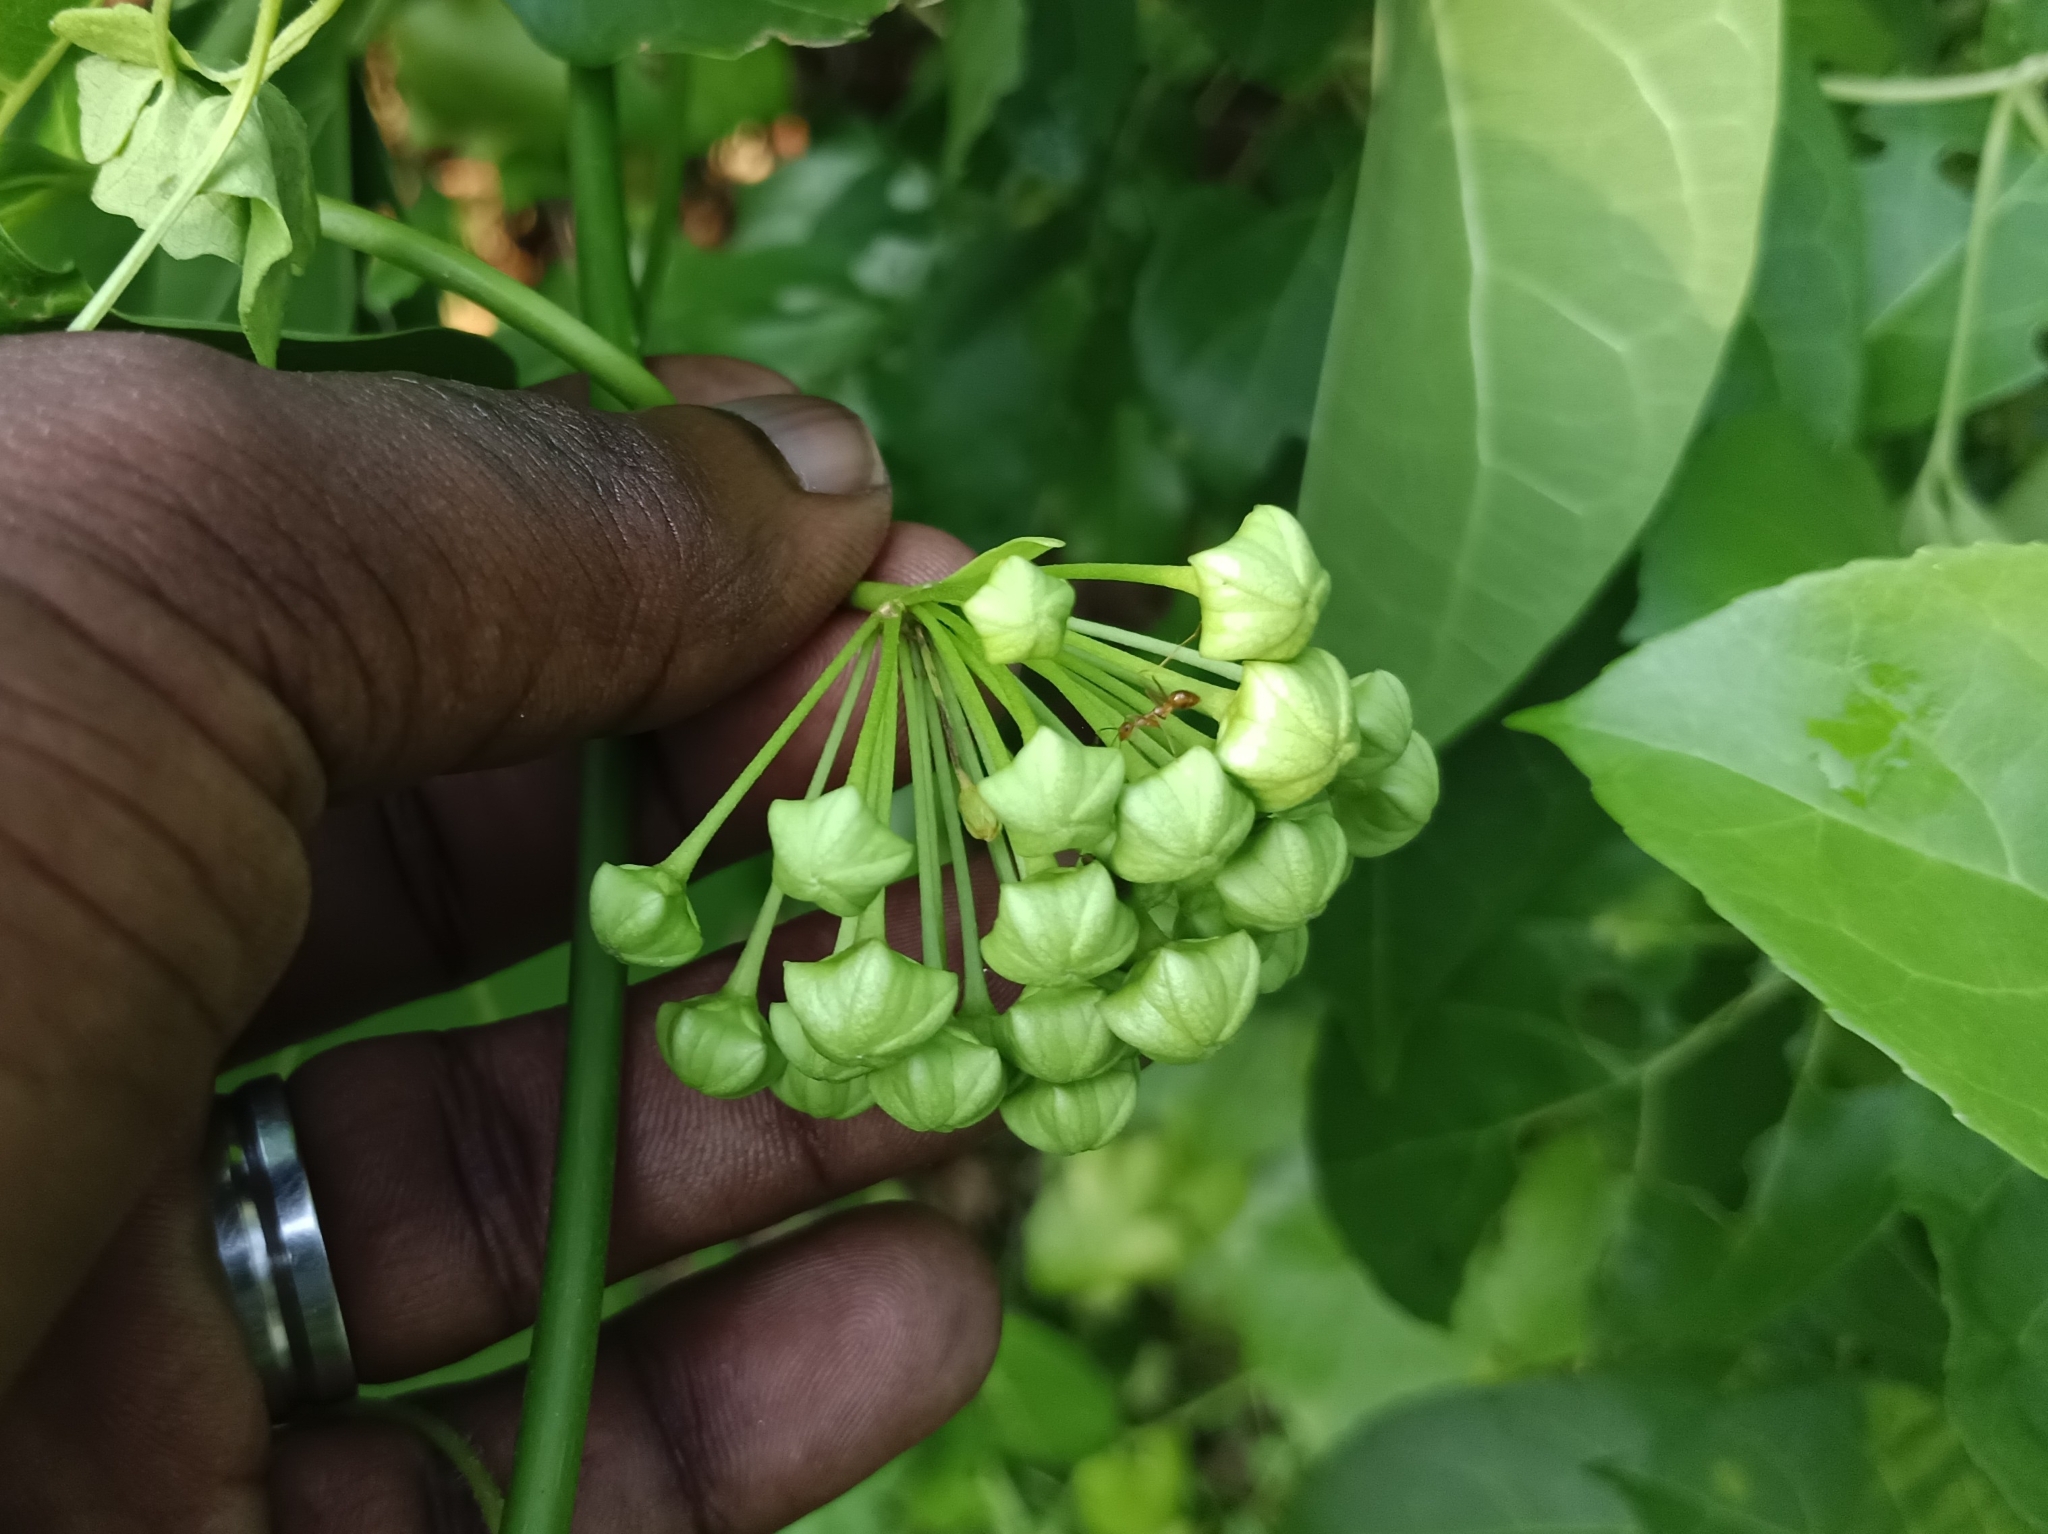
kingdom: Plantae
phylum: Tracheophyta
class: Magnoliopsida
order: Gentianales
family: Apocynaceae
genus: Stephanotis
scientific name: Stephanotis volubilis
